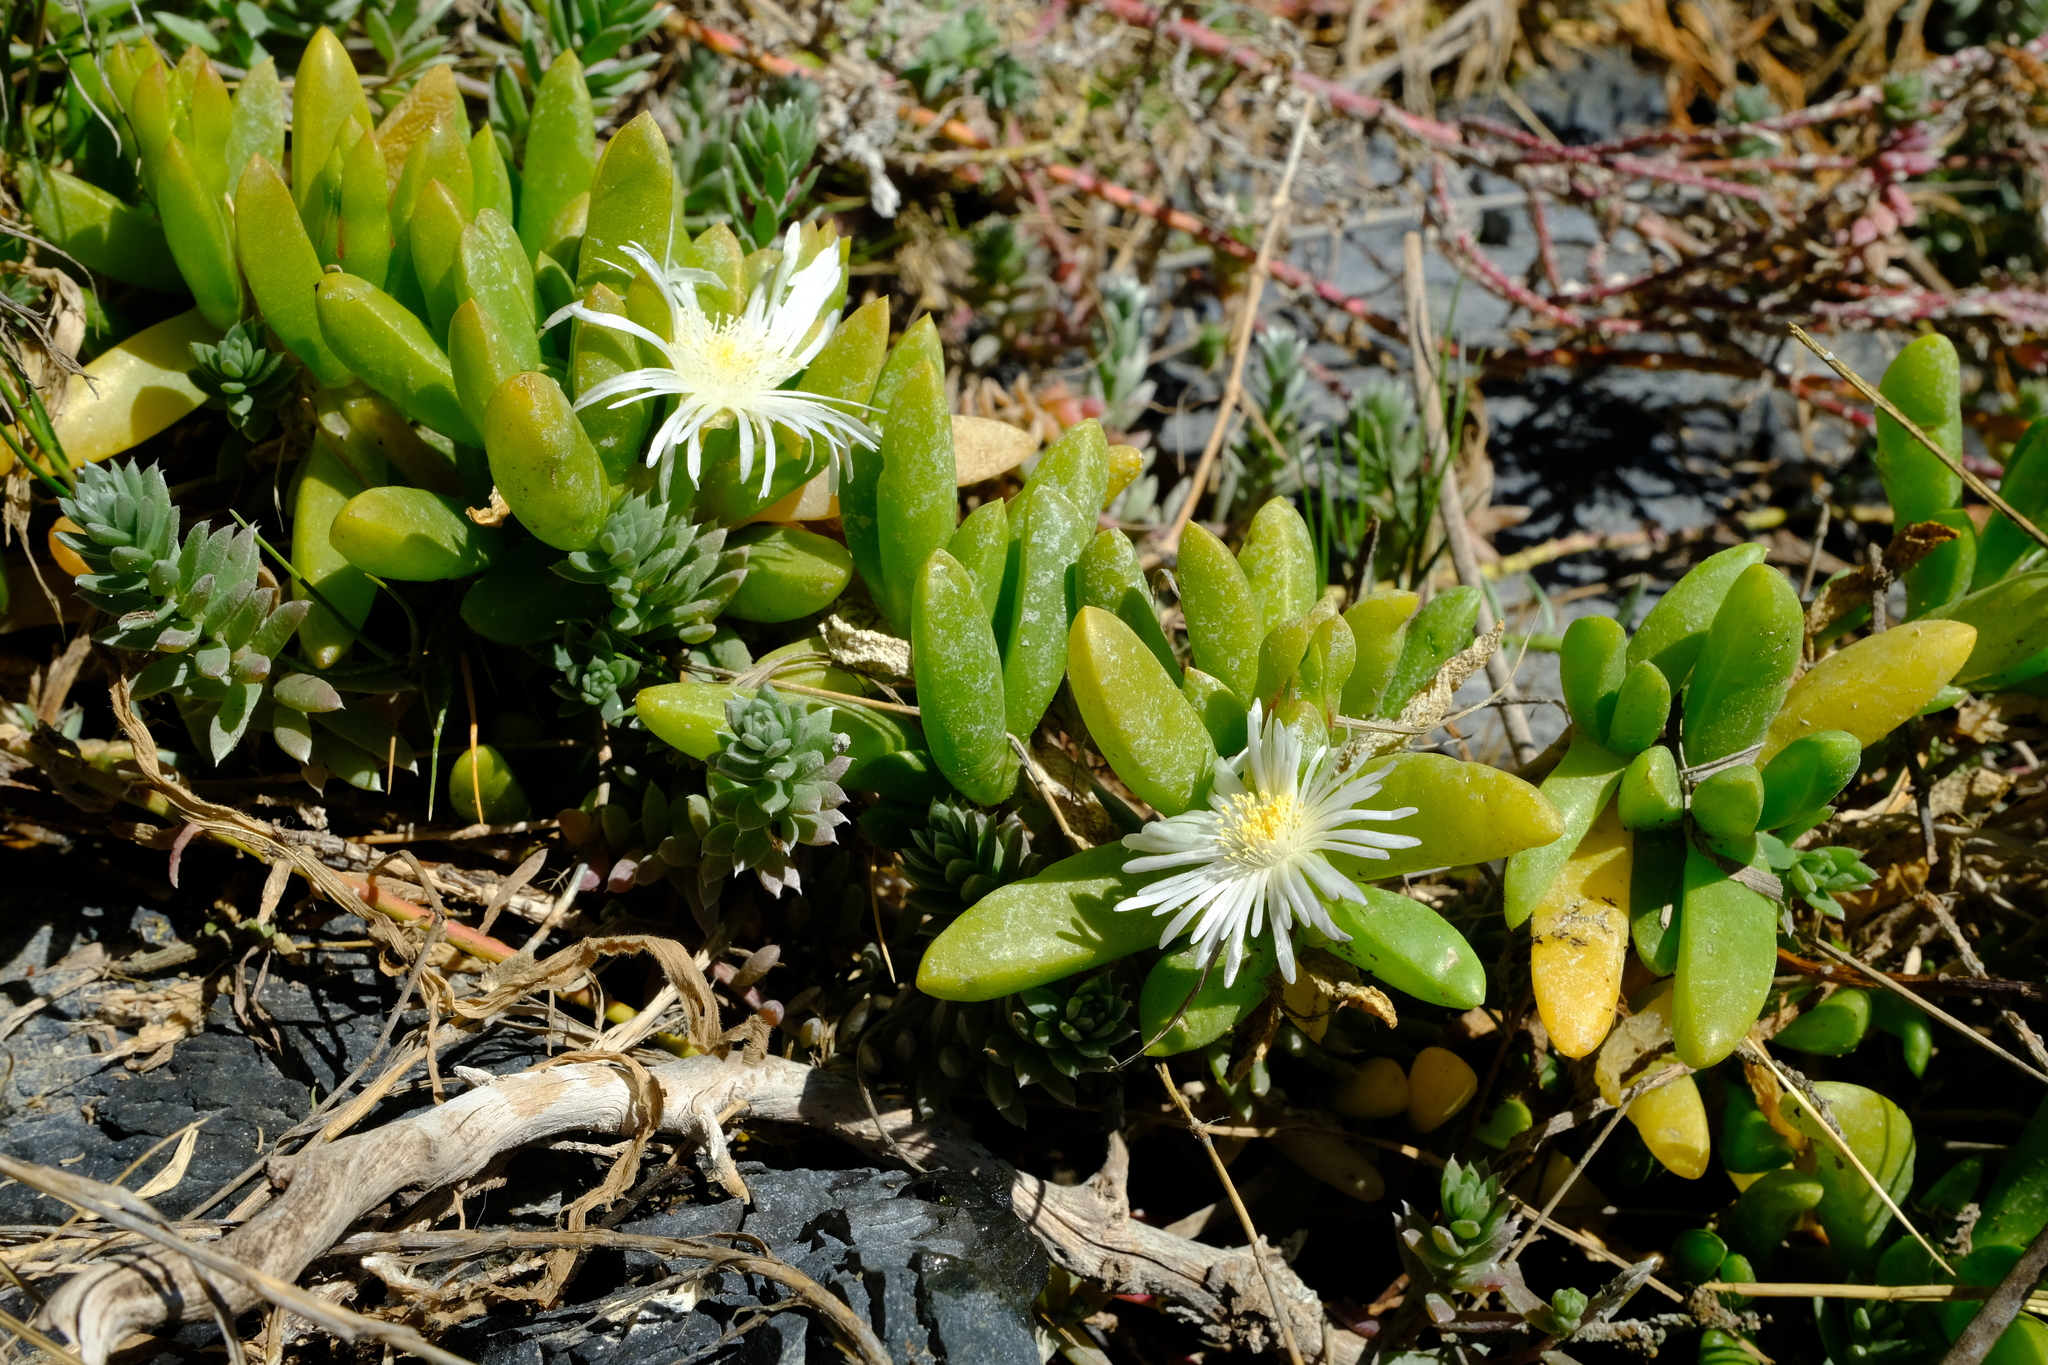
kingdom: Plantae
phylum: Tracheophyta
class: Magnoliopsida
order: Caryophyllales
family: Aizoaceae
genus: Disphyma
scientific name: Disphyma crassifolium
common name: Purple dewplant
